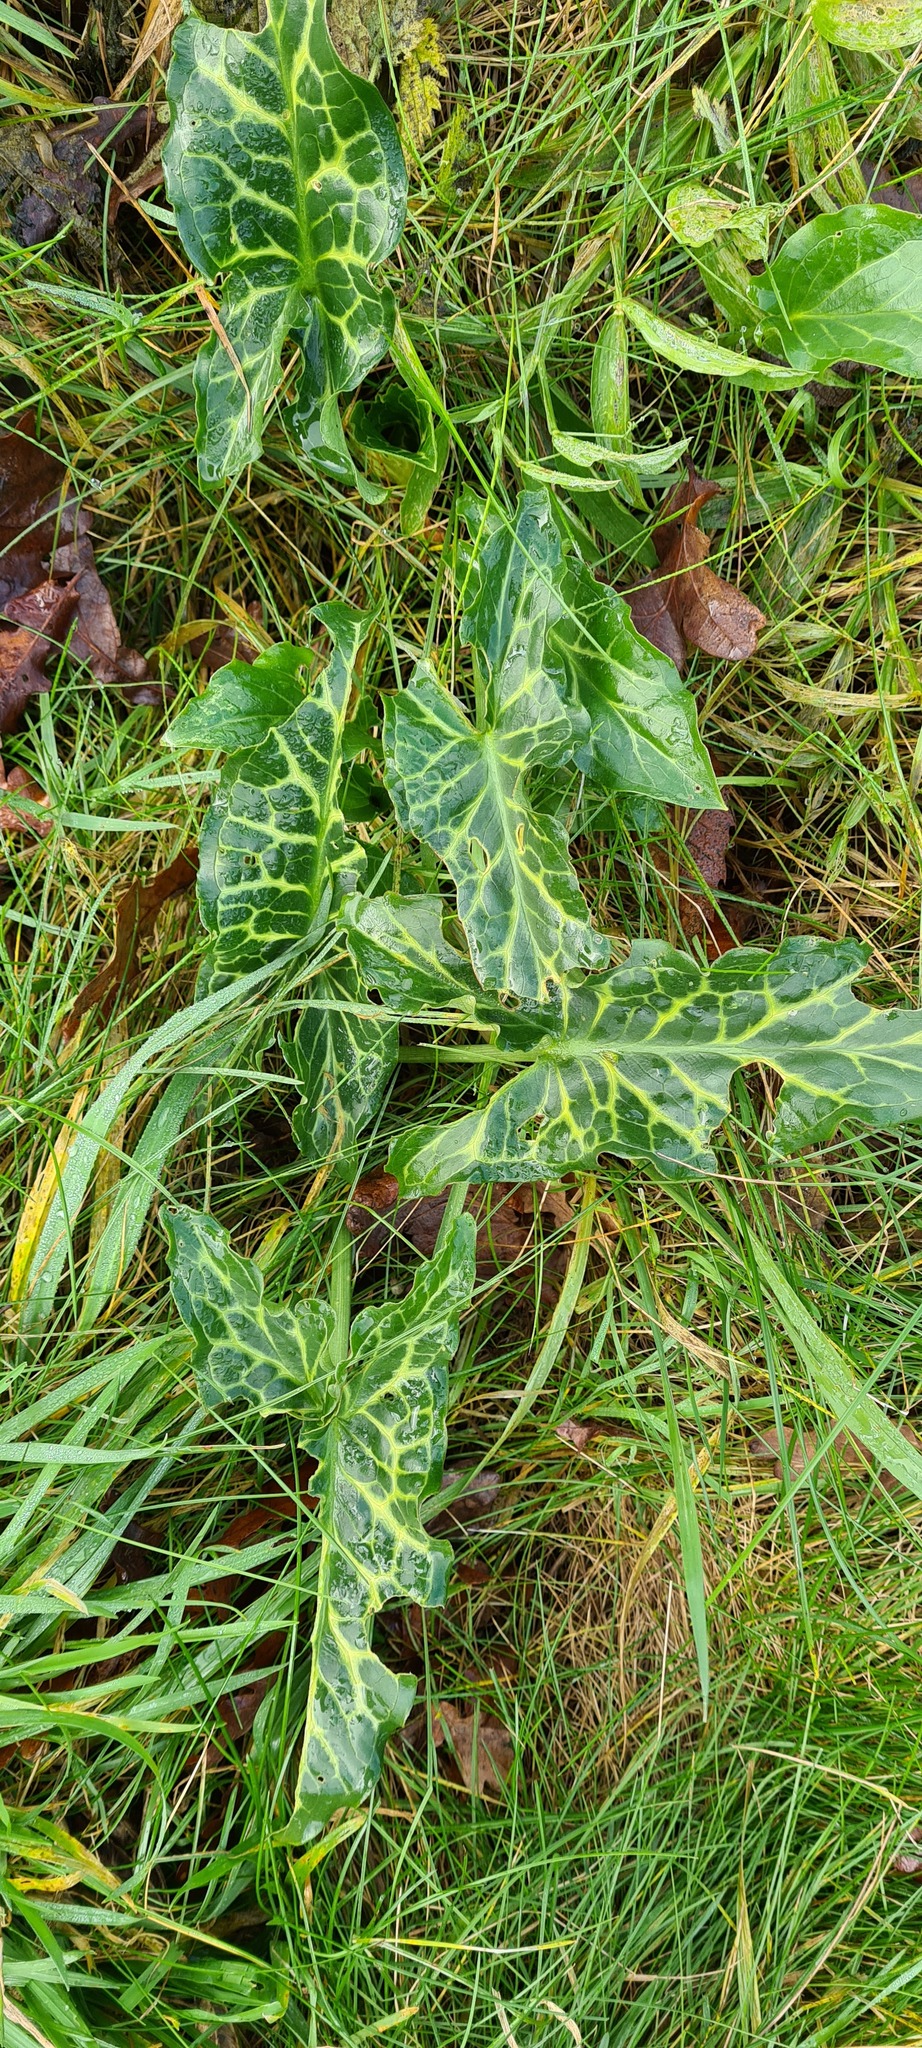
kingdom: Plantae
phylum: Tracheophyta
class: Liliopsida
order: Alismatales
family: Araceae
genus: Arum
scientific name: Arum italicum
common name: Italian lords-and-ladies
